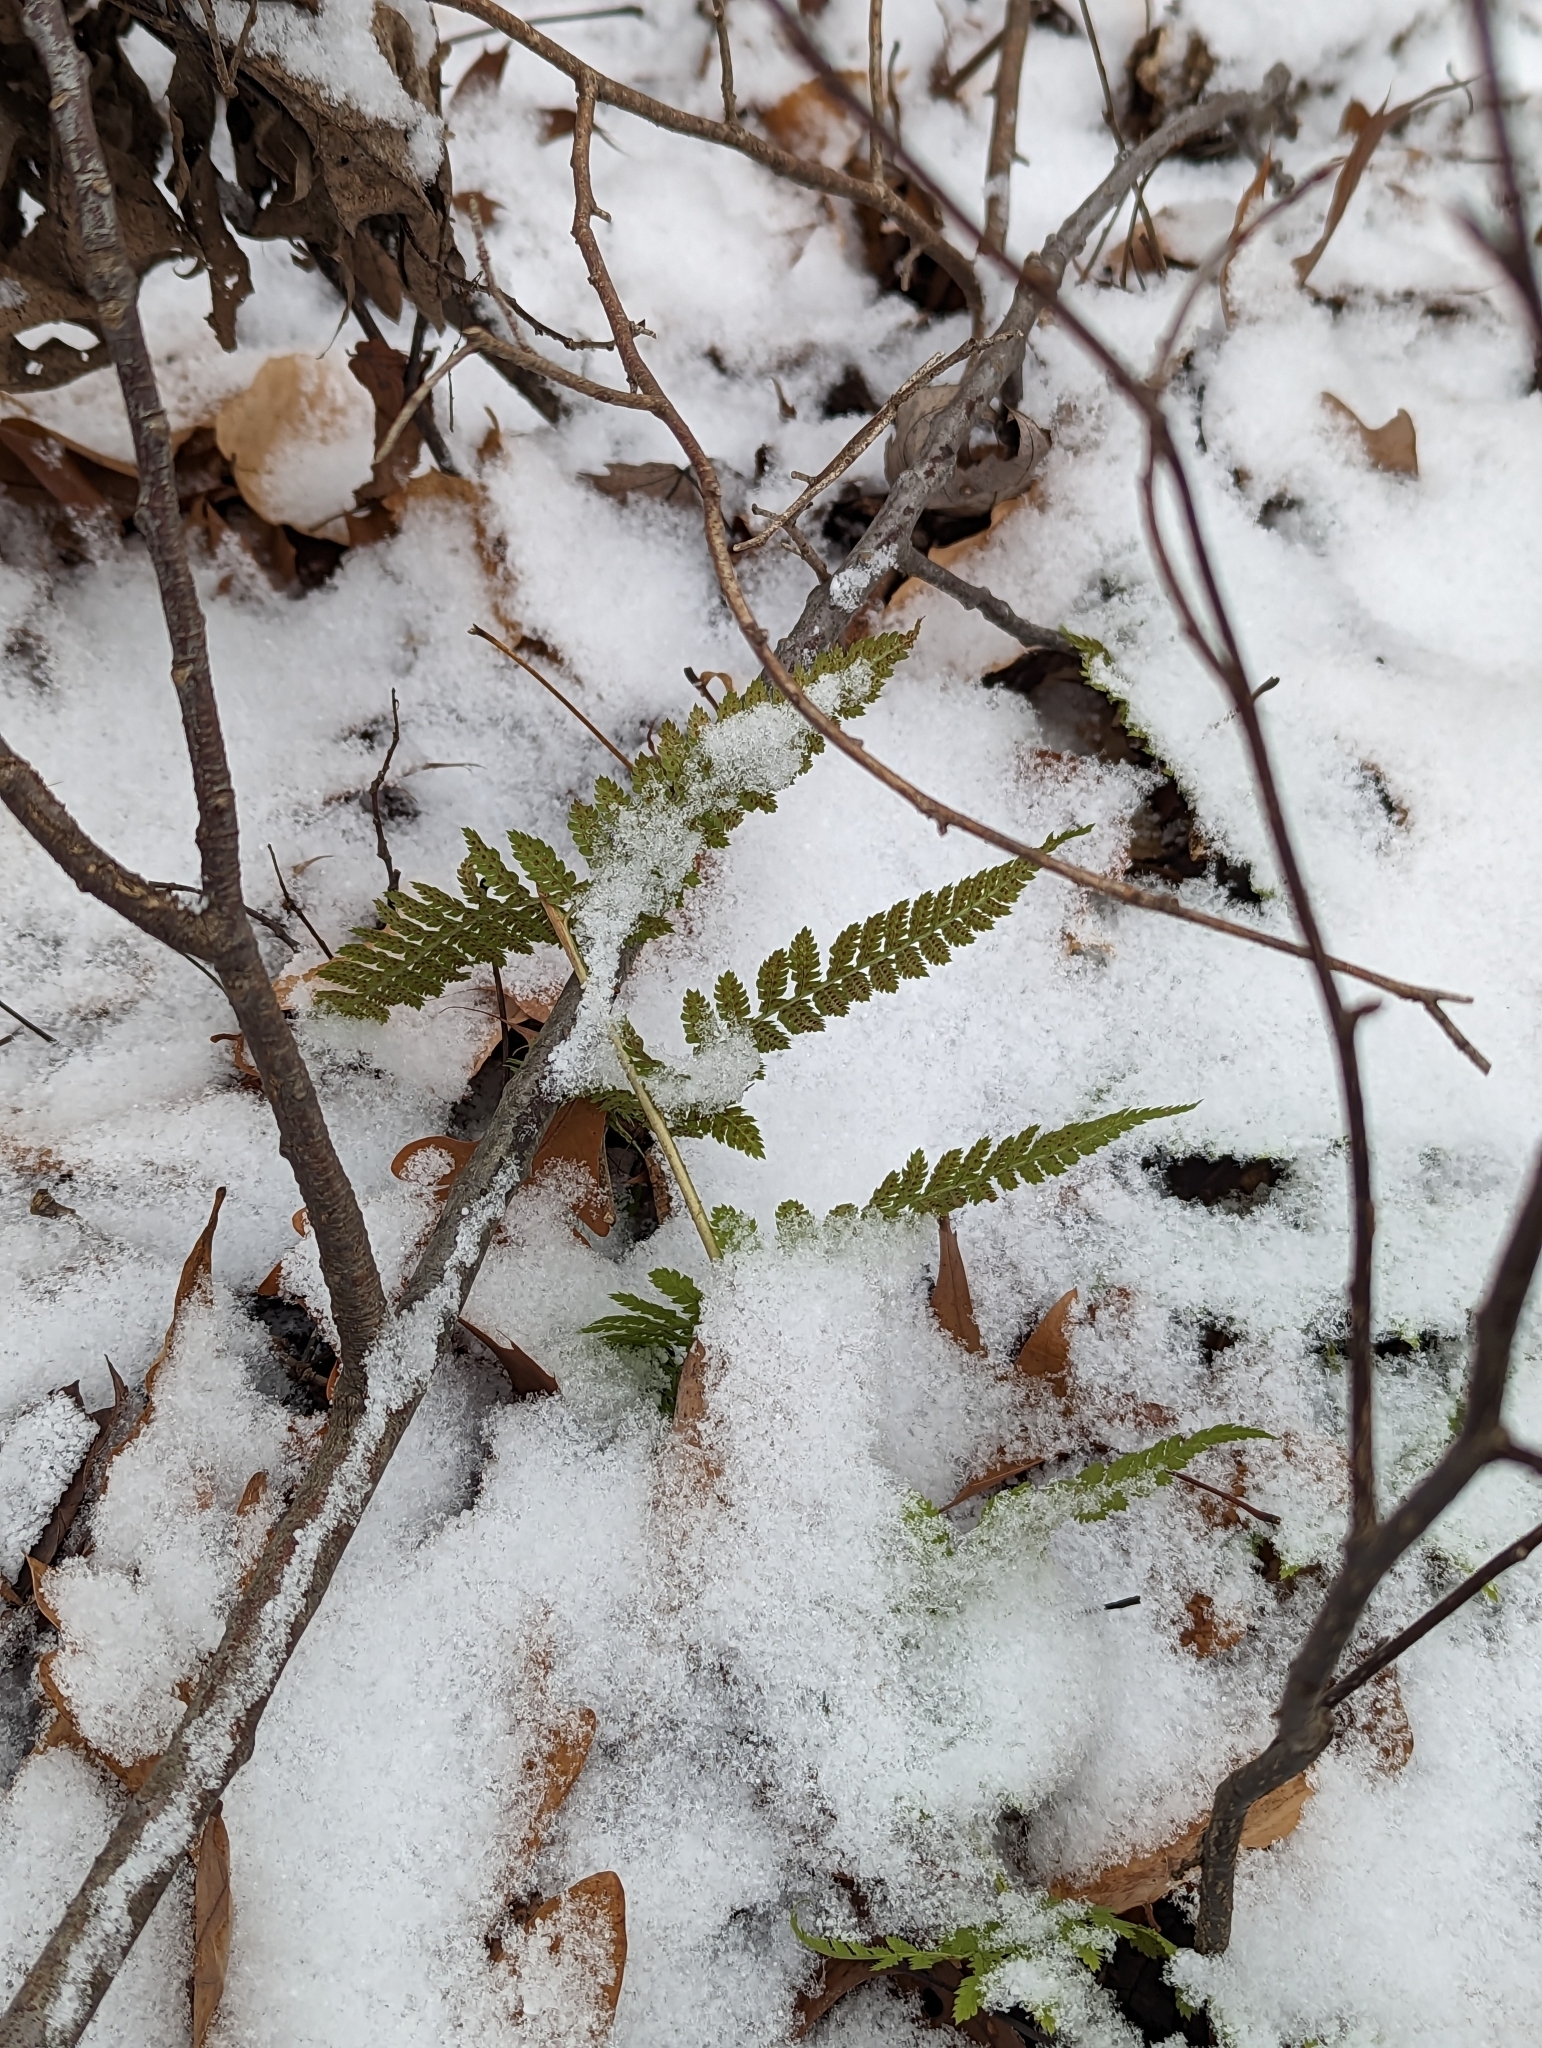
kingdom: Plantae
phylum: Tracheophyta
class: Polypodiopsida
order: Polypodiales
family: Dryopteridaceae
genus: Dryopteris
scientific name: Dryopteris intermedia
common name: Evergreen wood fern
